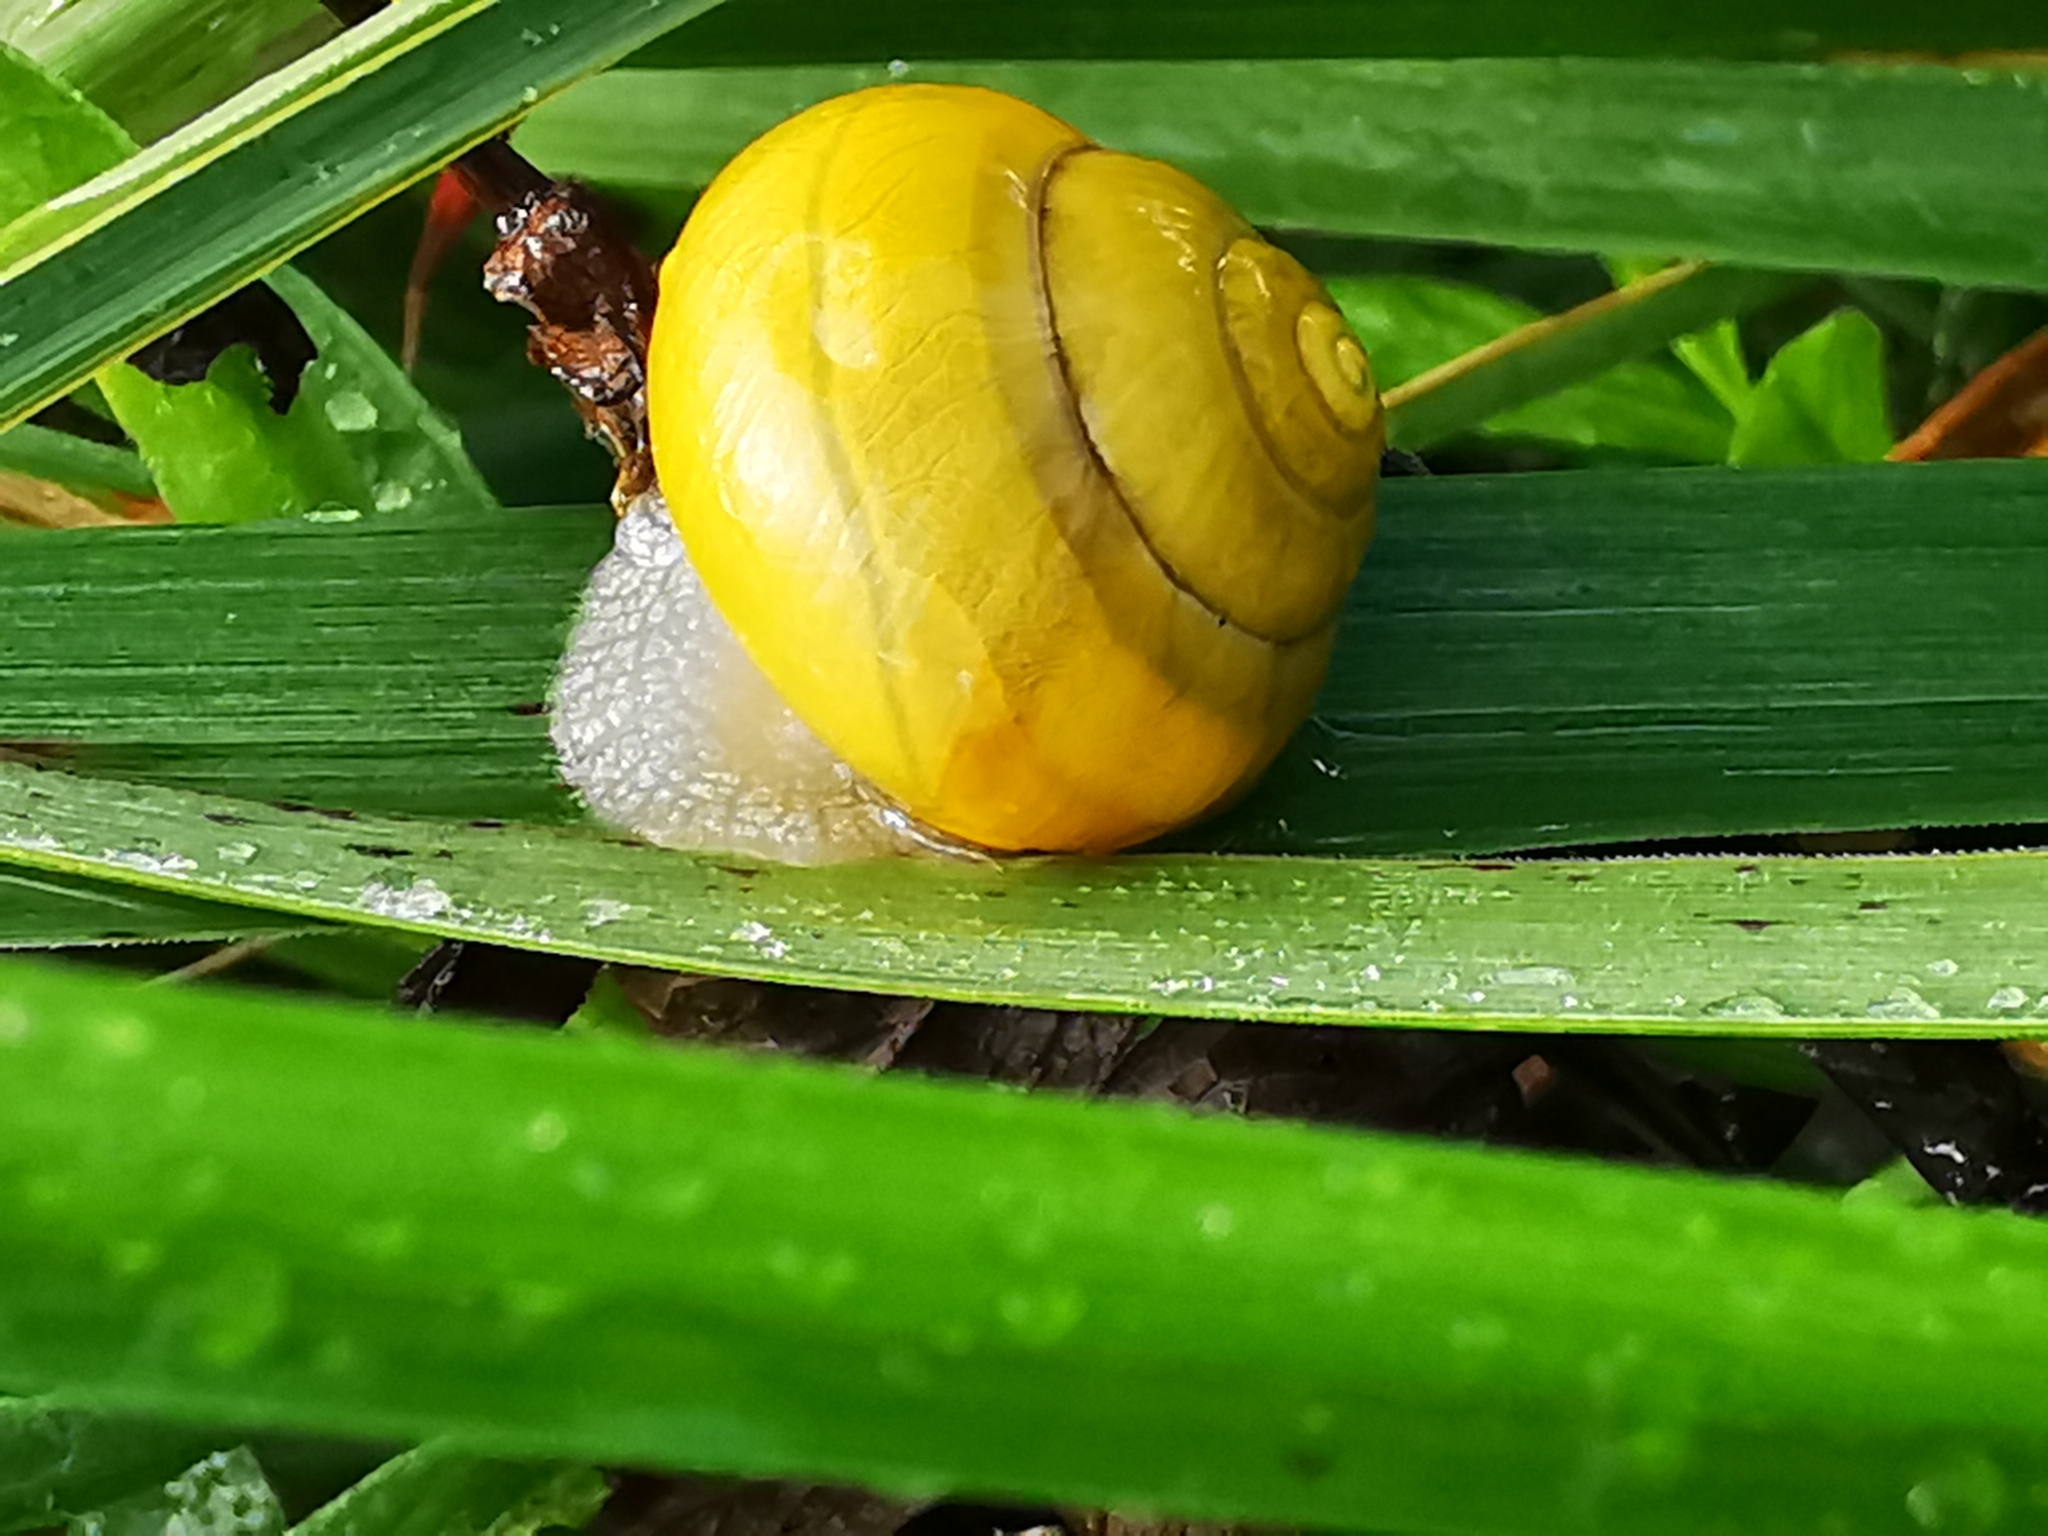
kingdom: Animalia
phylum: Mollusca
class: Gastropoda
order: Stylommatophora
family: Helicidae
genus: Cepaea
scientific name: Cepaea
